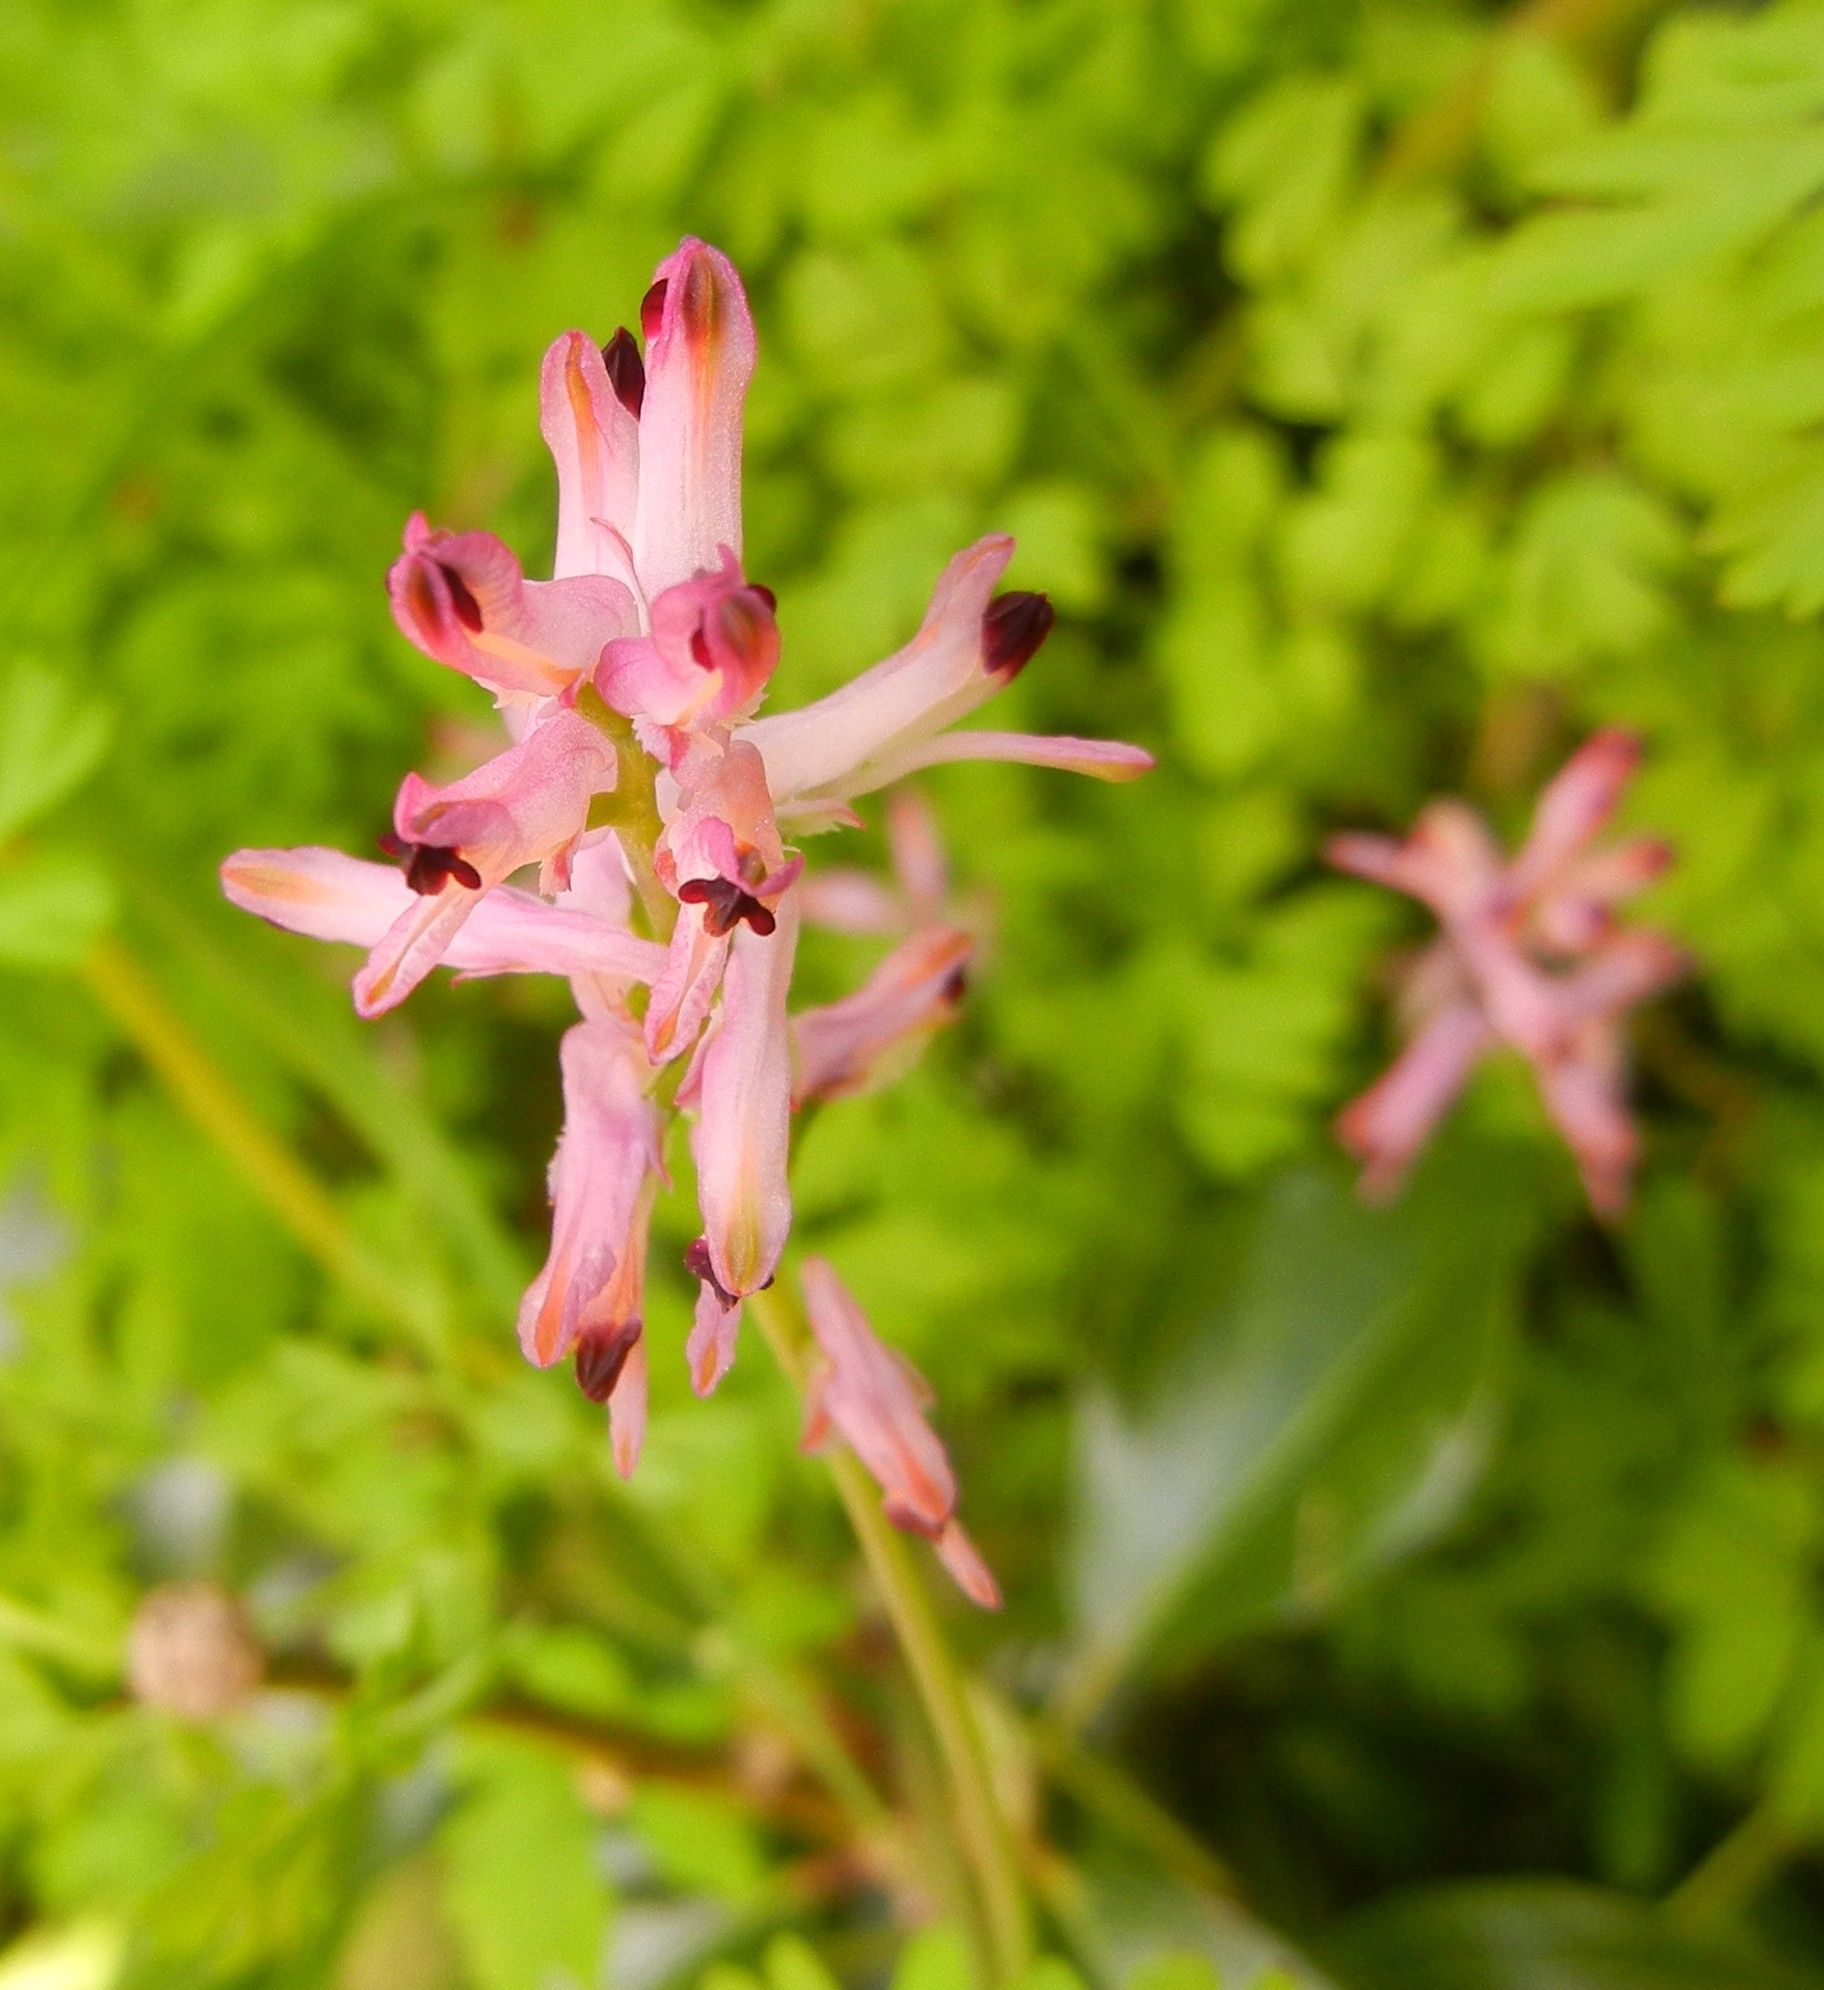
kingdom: Plantae
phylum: Tracheophyta
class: Magnoliopsida
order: Ranunculales
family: Papaveraceae
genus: Fumaria
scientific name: Fumaria bastardii
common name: Tall ramping-fumitory
